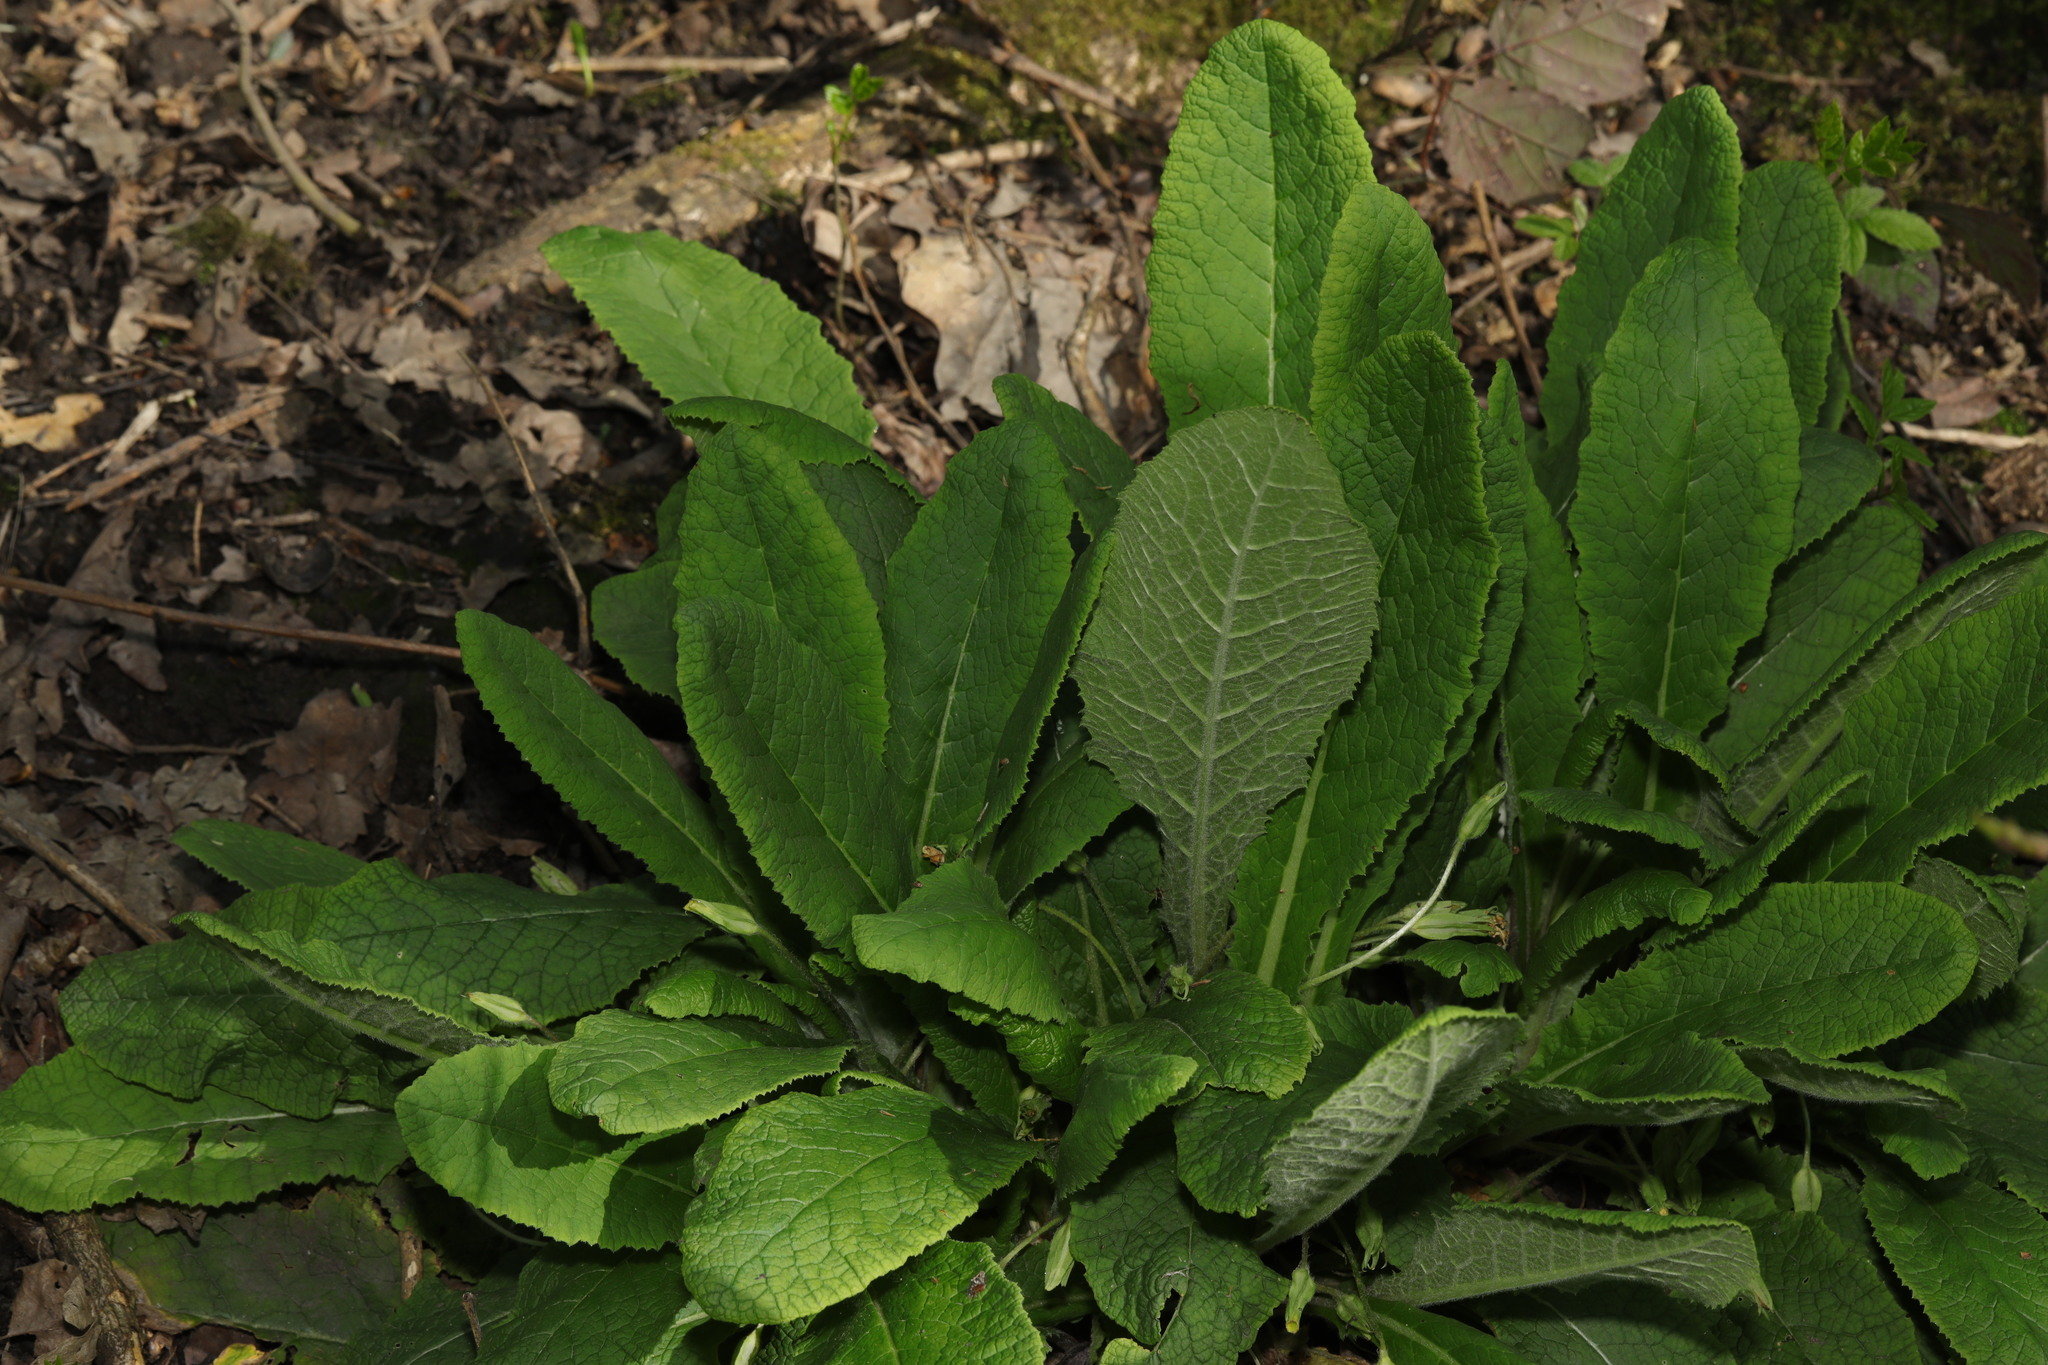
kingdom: Plantae
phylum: Tracheophyta
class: Magnoliopsida
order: Ericales
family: Primulaceae
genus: Primula
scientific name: Primula vulgaris
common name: Primrose
